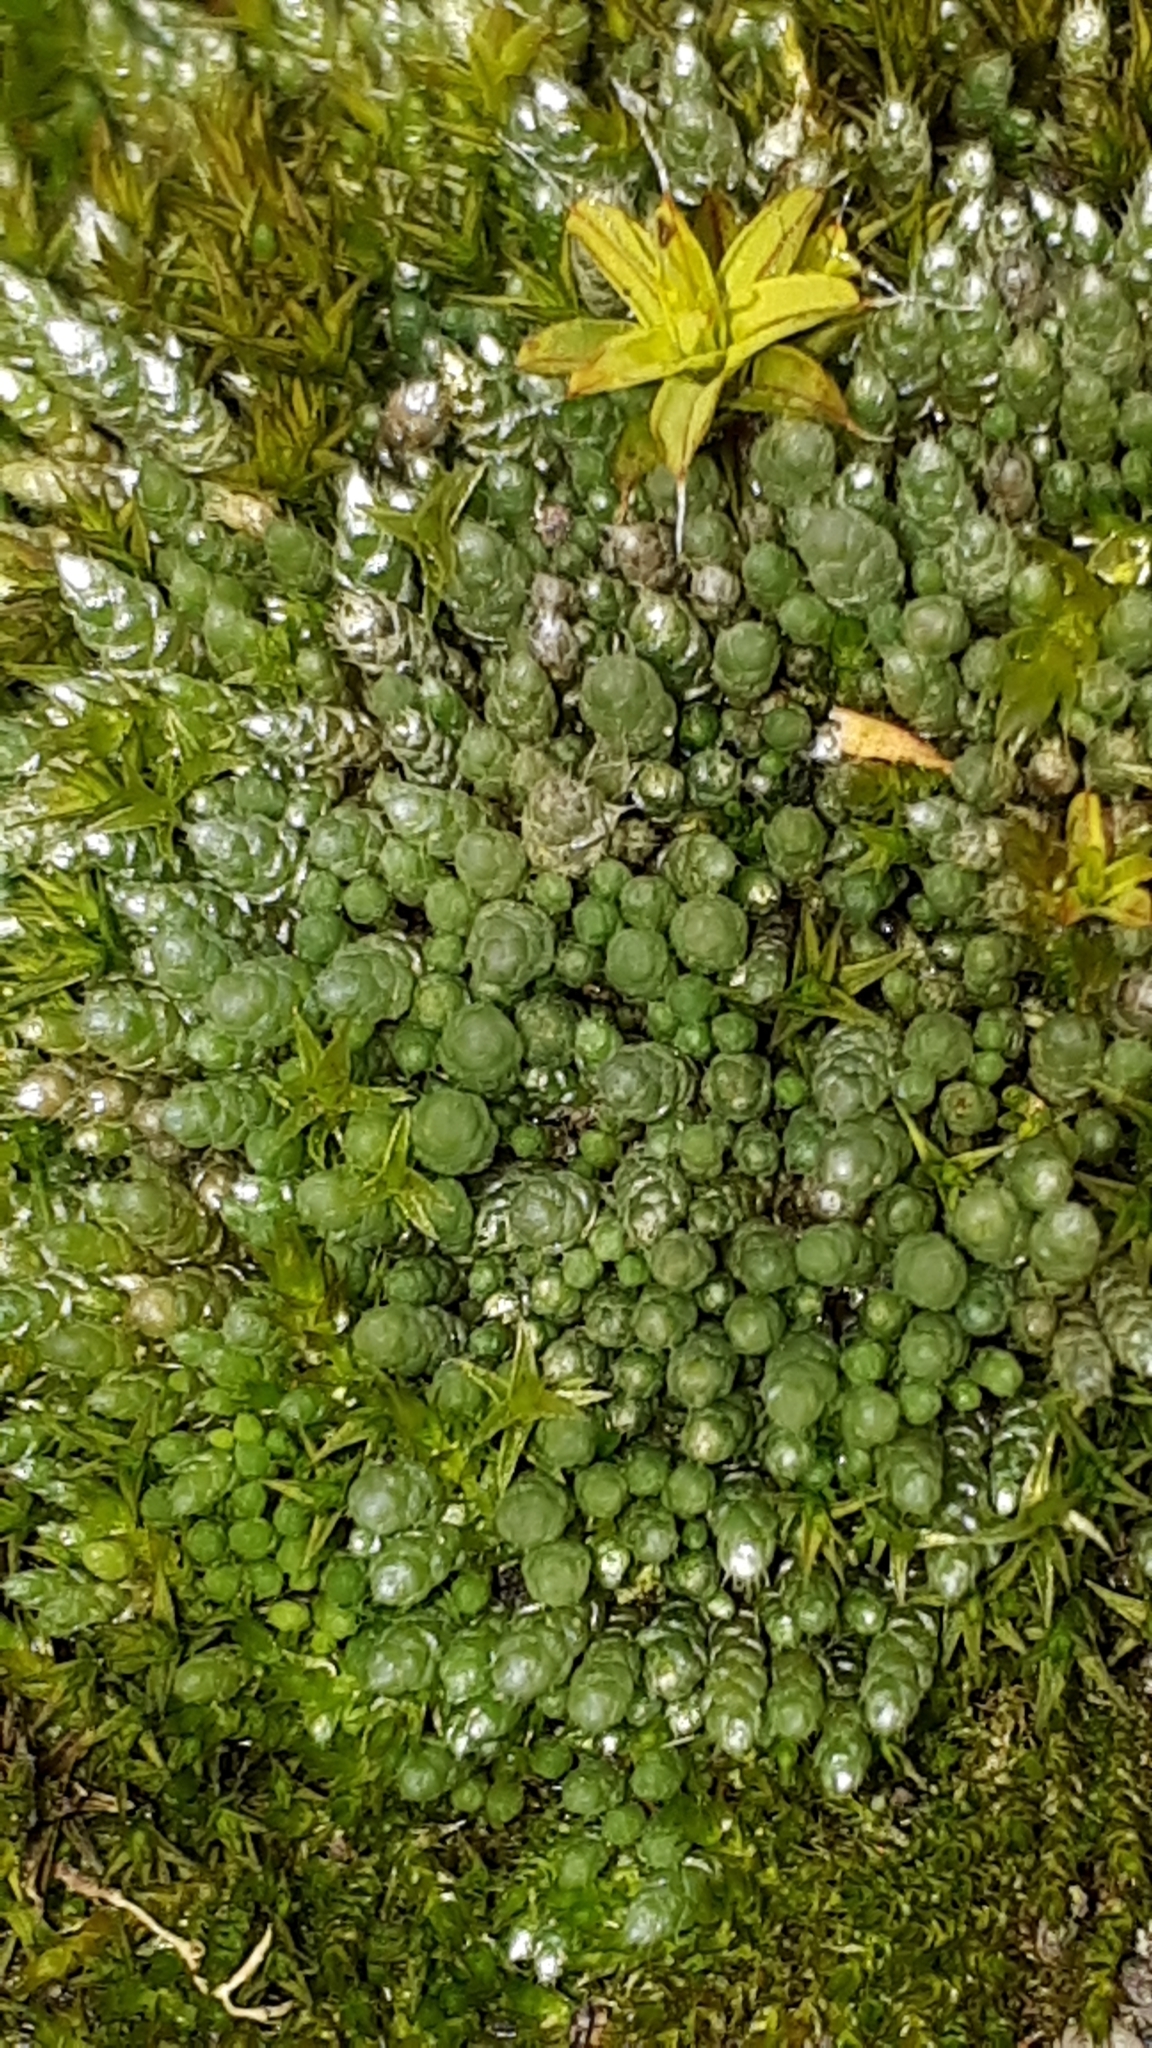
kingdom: Plantae
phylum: Bryophyta
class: Bryopsida
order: Bryales
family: Bryaceae
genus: Bryum
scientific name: Bryum argenteum
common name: Silver-moss
